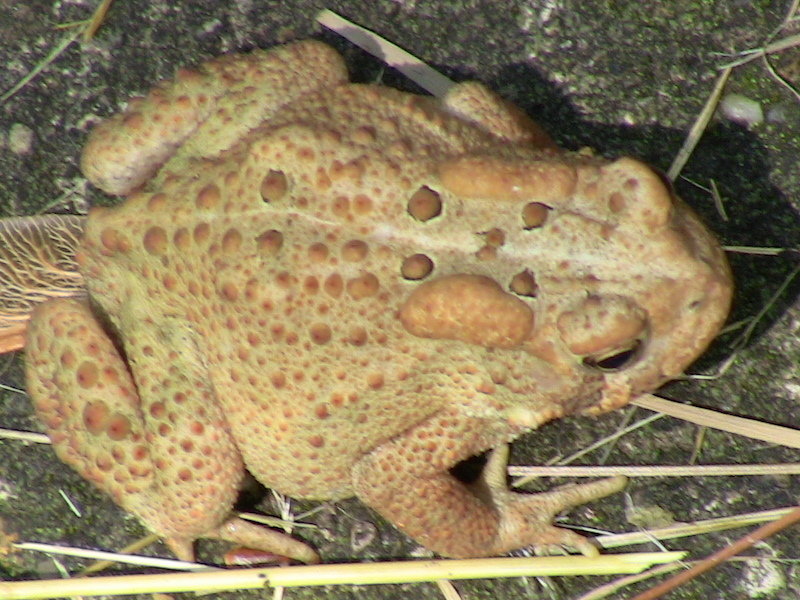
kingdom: Animalia
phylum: Chordata
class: Amphibia
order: Anura
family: Bufonidae
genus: Anaxyrus
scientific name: Anaxyrus americanus
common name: American toad
